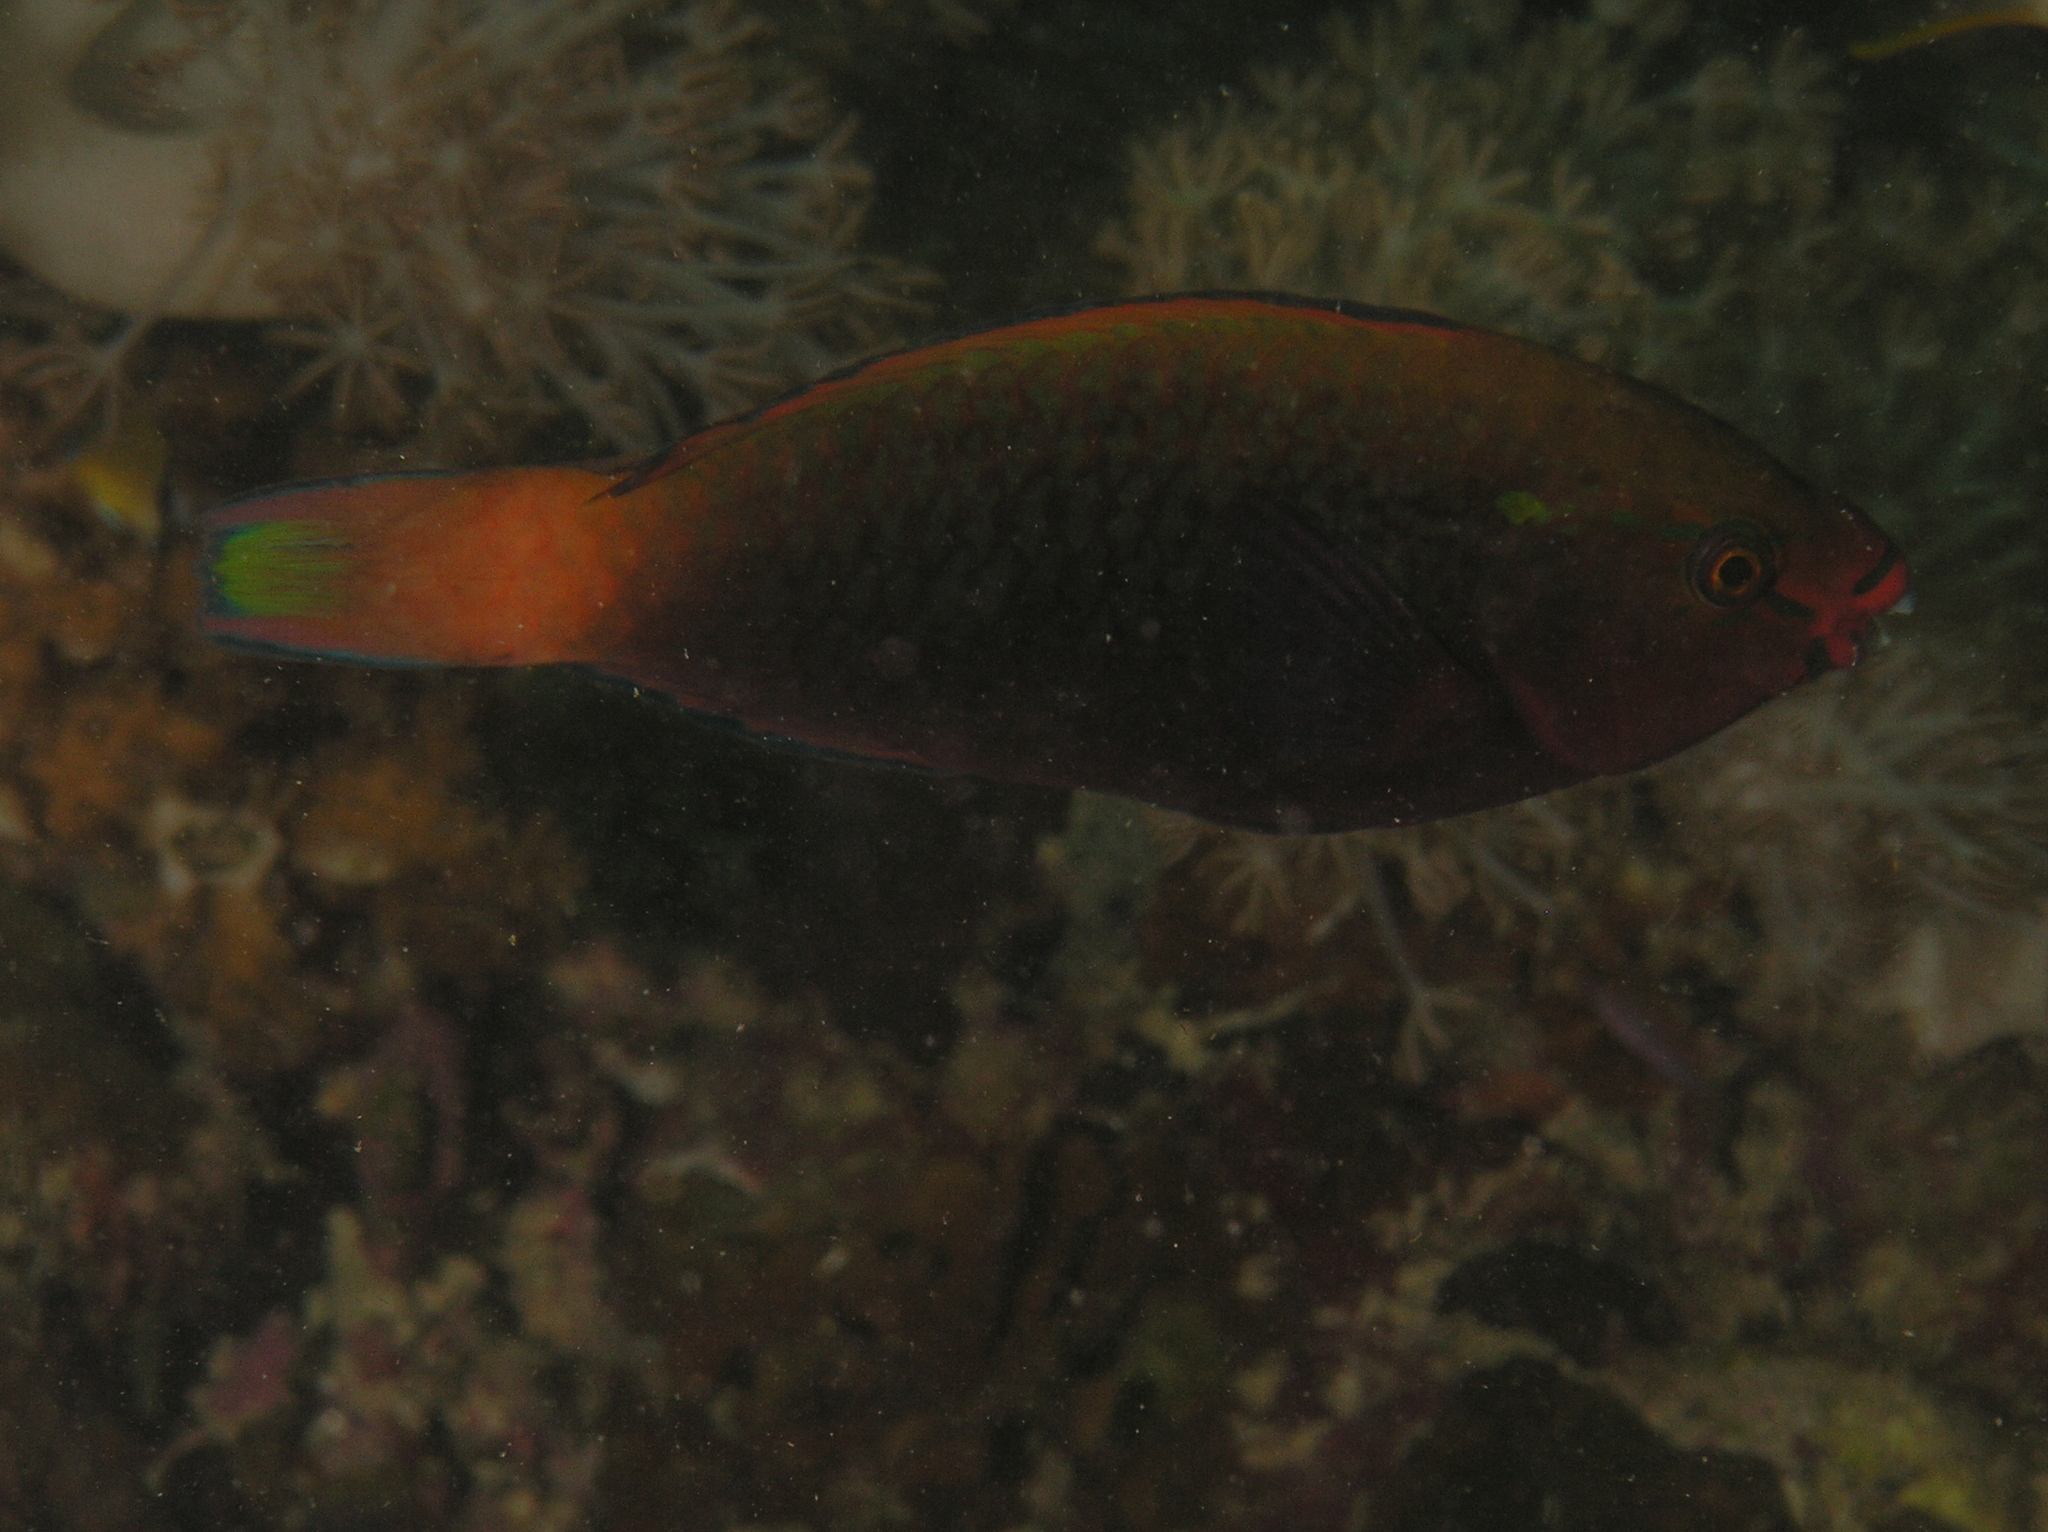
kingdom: Animalia
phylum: Chordata
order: Perciformes
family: Scaridae
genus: Scarus
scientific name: Scarus niger
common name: Dusky parrotfish
